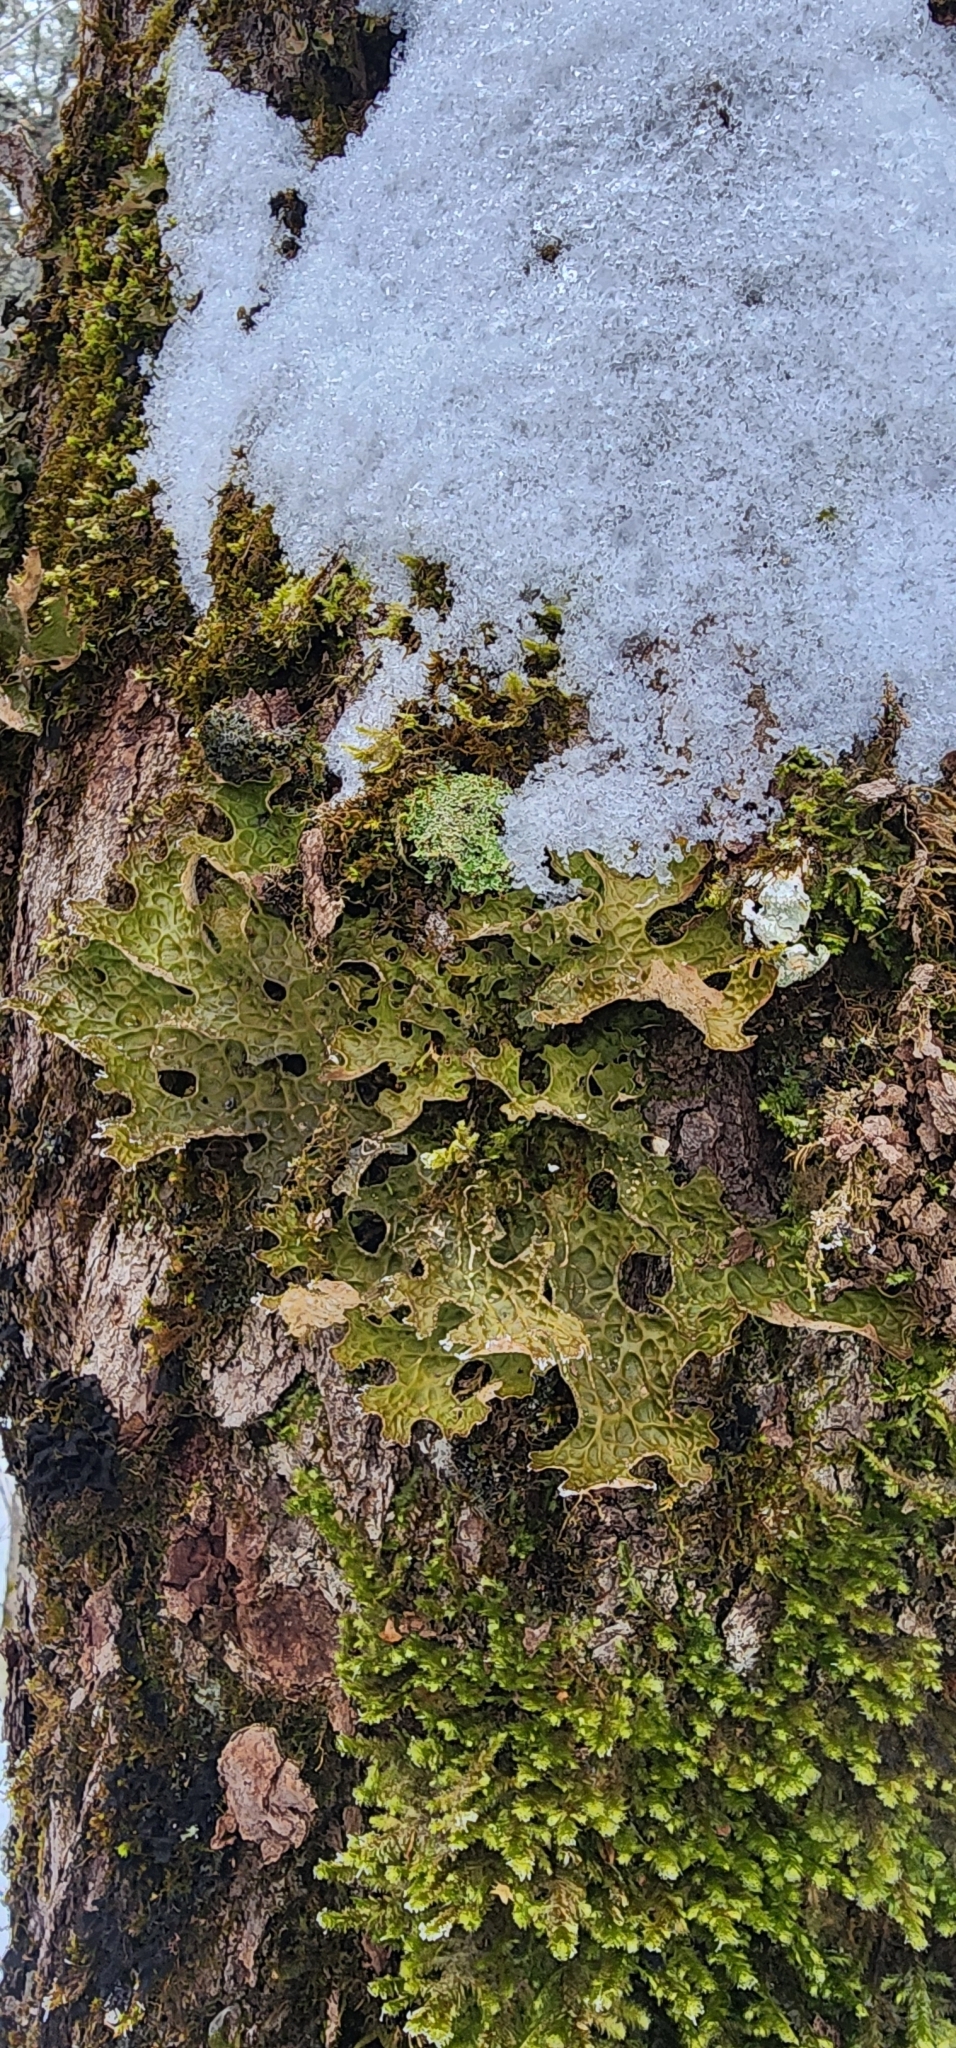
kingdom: Fungi
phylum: Ascomycota
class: Lecanoromycetes
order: Peltigerales
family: Lobariaceae
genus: Lobaria
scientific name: Lobaria pulmonaria
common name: Lungwort
